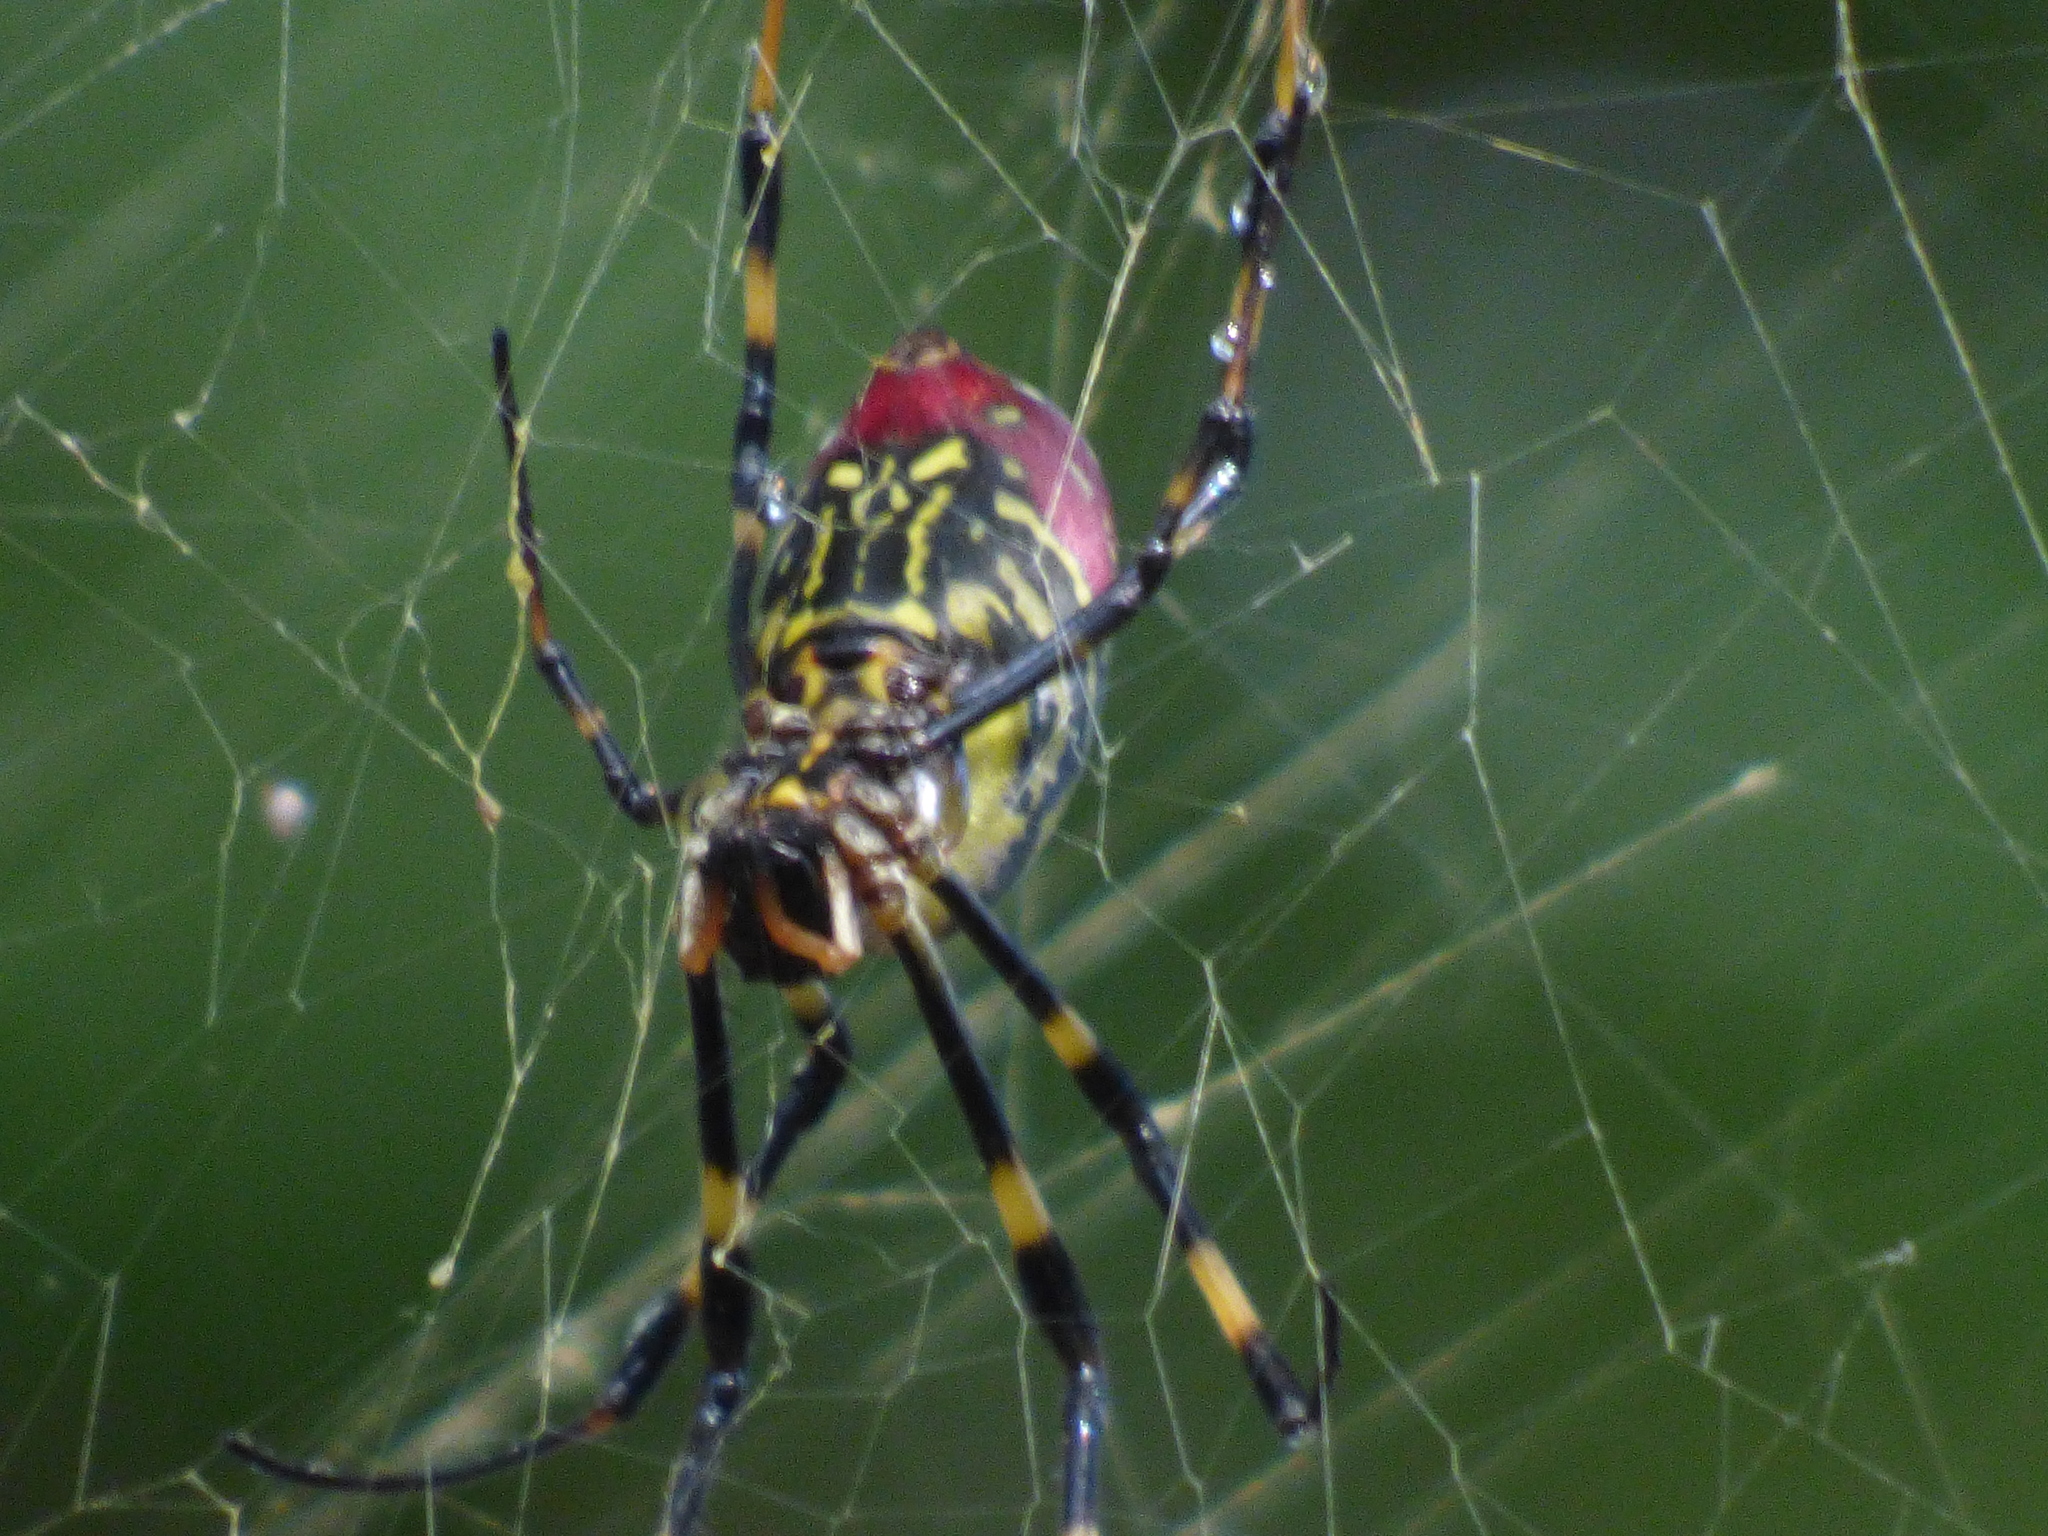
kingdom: Animalia
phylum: Arthropoda
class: Arachnida
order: Araneae
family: Araneidae
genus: Trichonephila
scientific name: Trichonephila clavata
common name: Jorō spider
